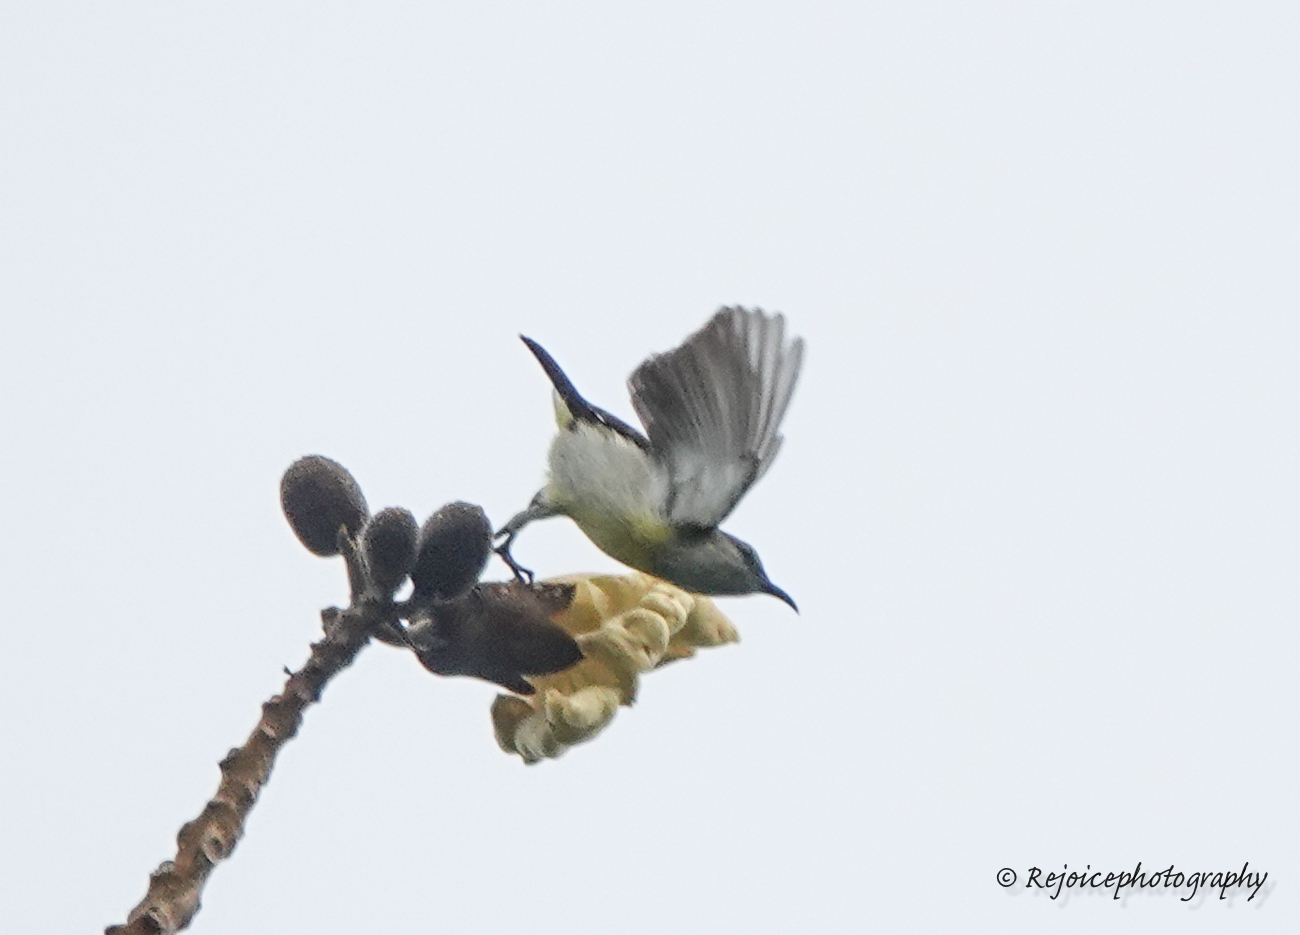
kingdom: Animalia
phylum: Chordata
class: Aves
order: Passeriformes
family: Nectariniidae
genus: Leptocoma
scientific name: Leptocoma zeylonica
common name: Purple-rumped sunbird
